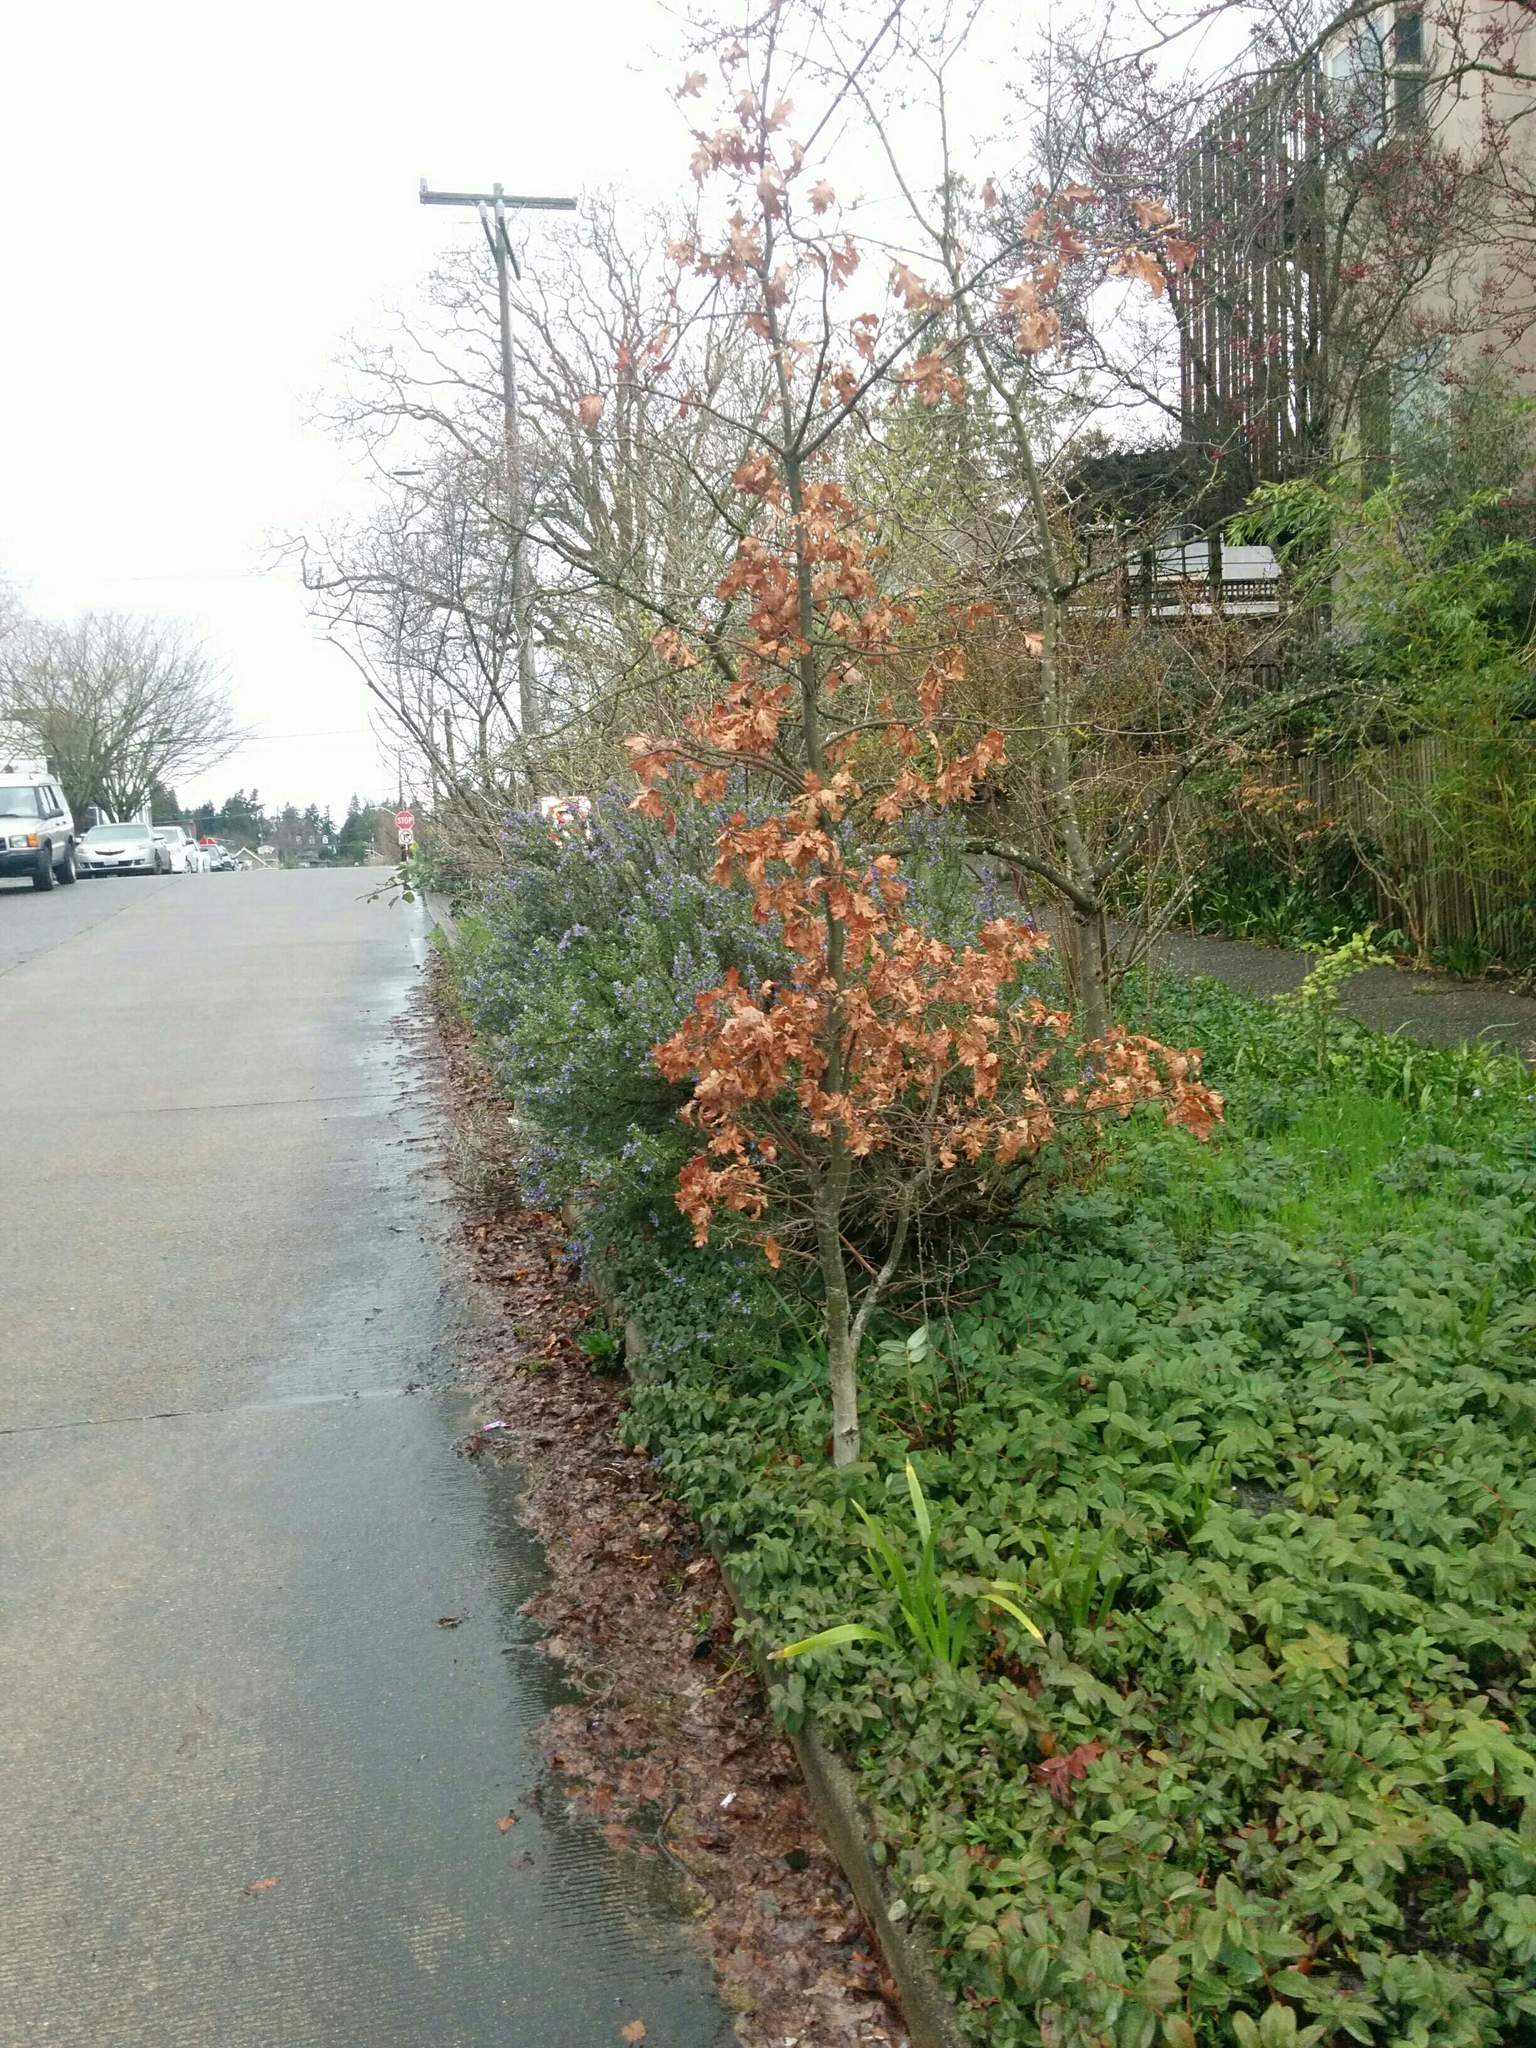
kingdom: Plantae
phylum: Tracheophyta
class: Magnoliopsida
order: Fagales
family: Fagaceae
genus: Quercus
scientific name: Quercus garryana
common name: Garry oak
